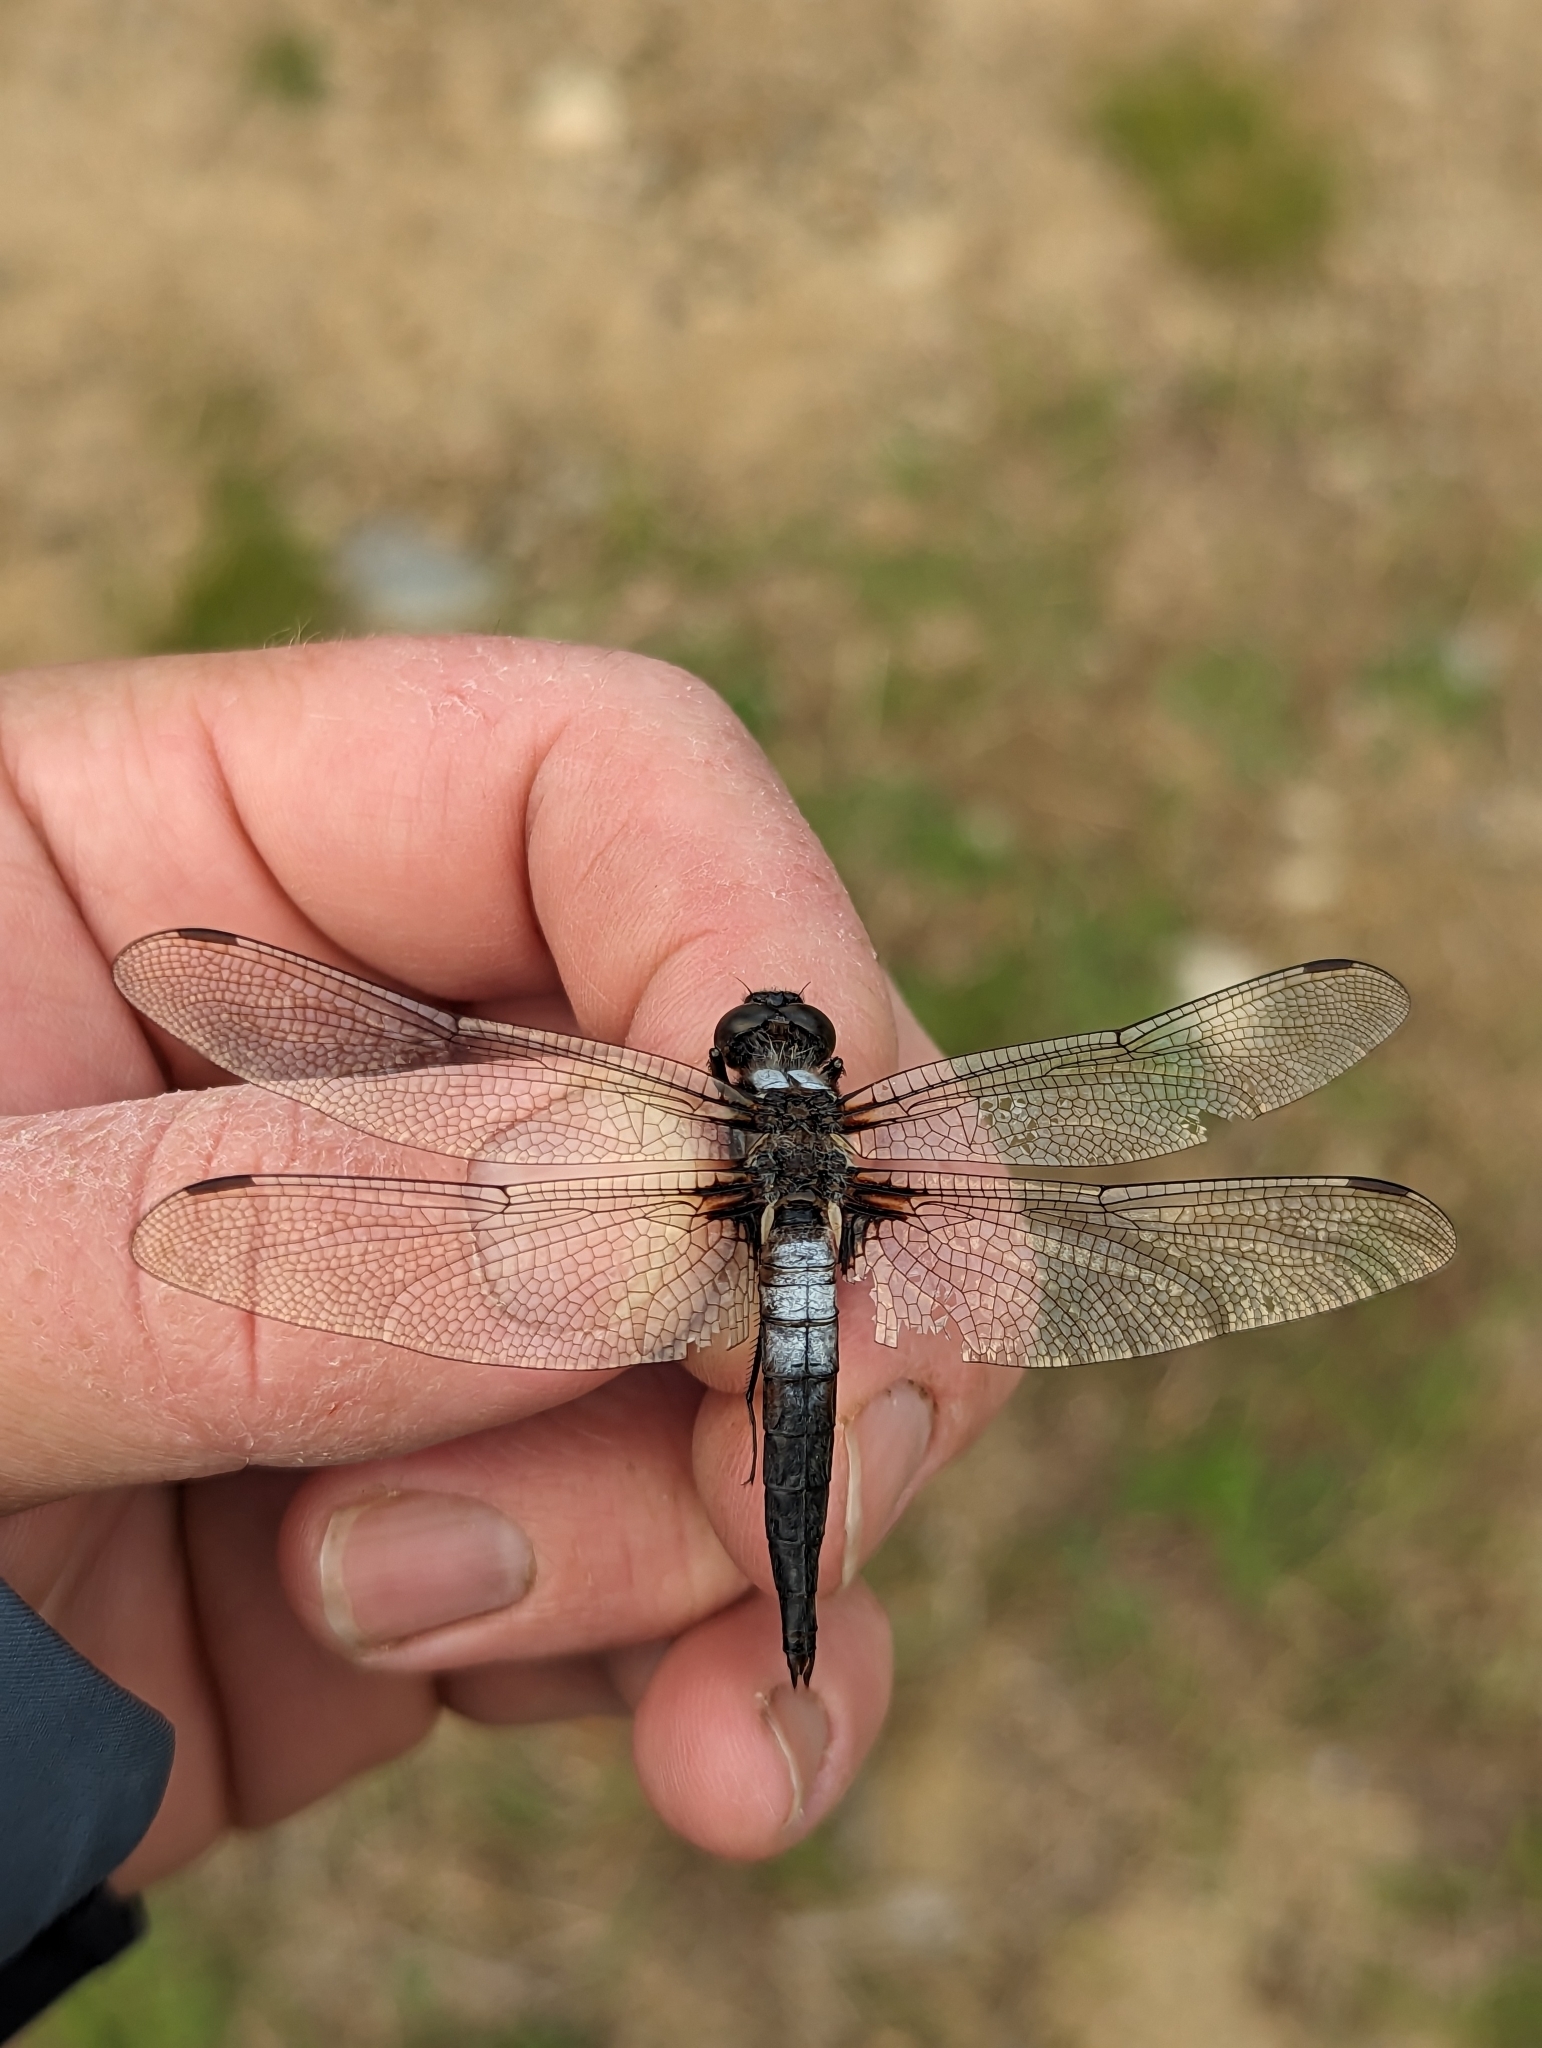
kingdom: Animalia
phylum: Arthropoda
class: Insecta
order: Odonata
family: Libellulidae
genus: Ladona
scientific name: Ladona julia
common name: Chalk-fronted corporal
